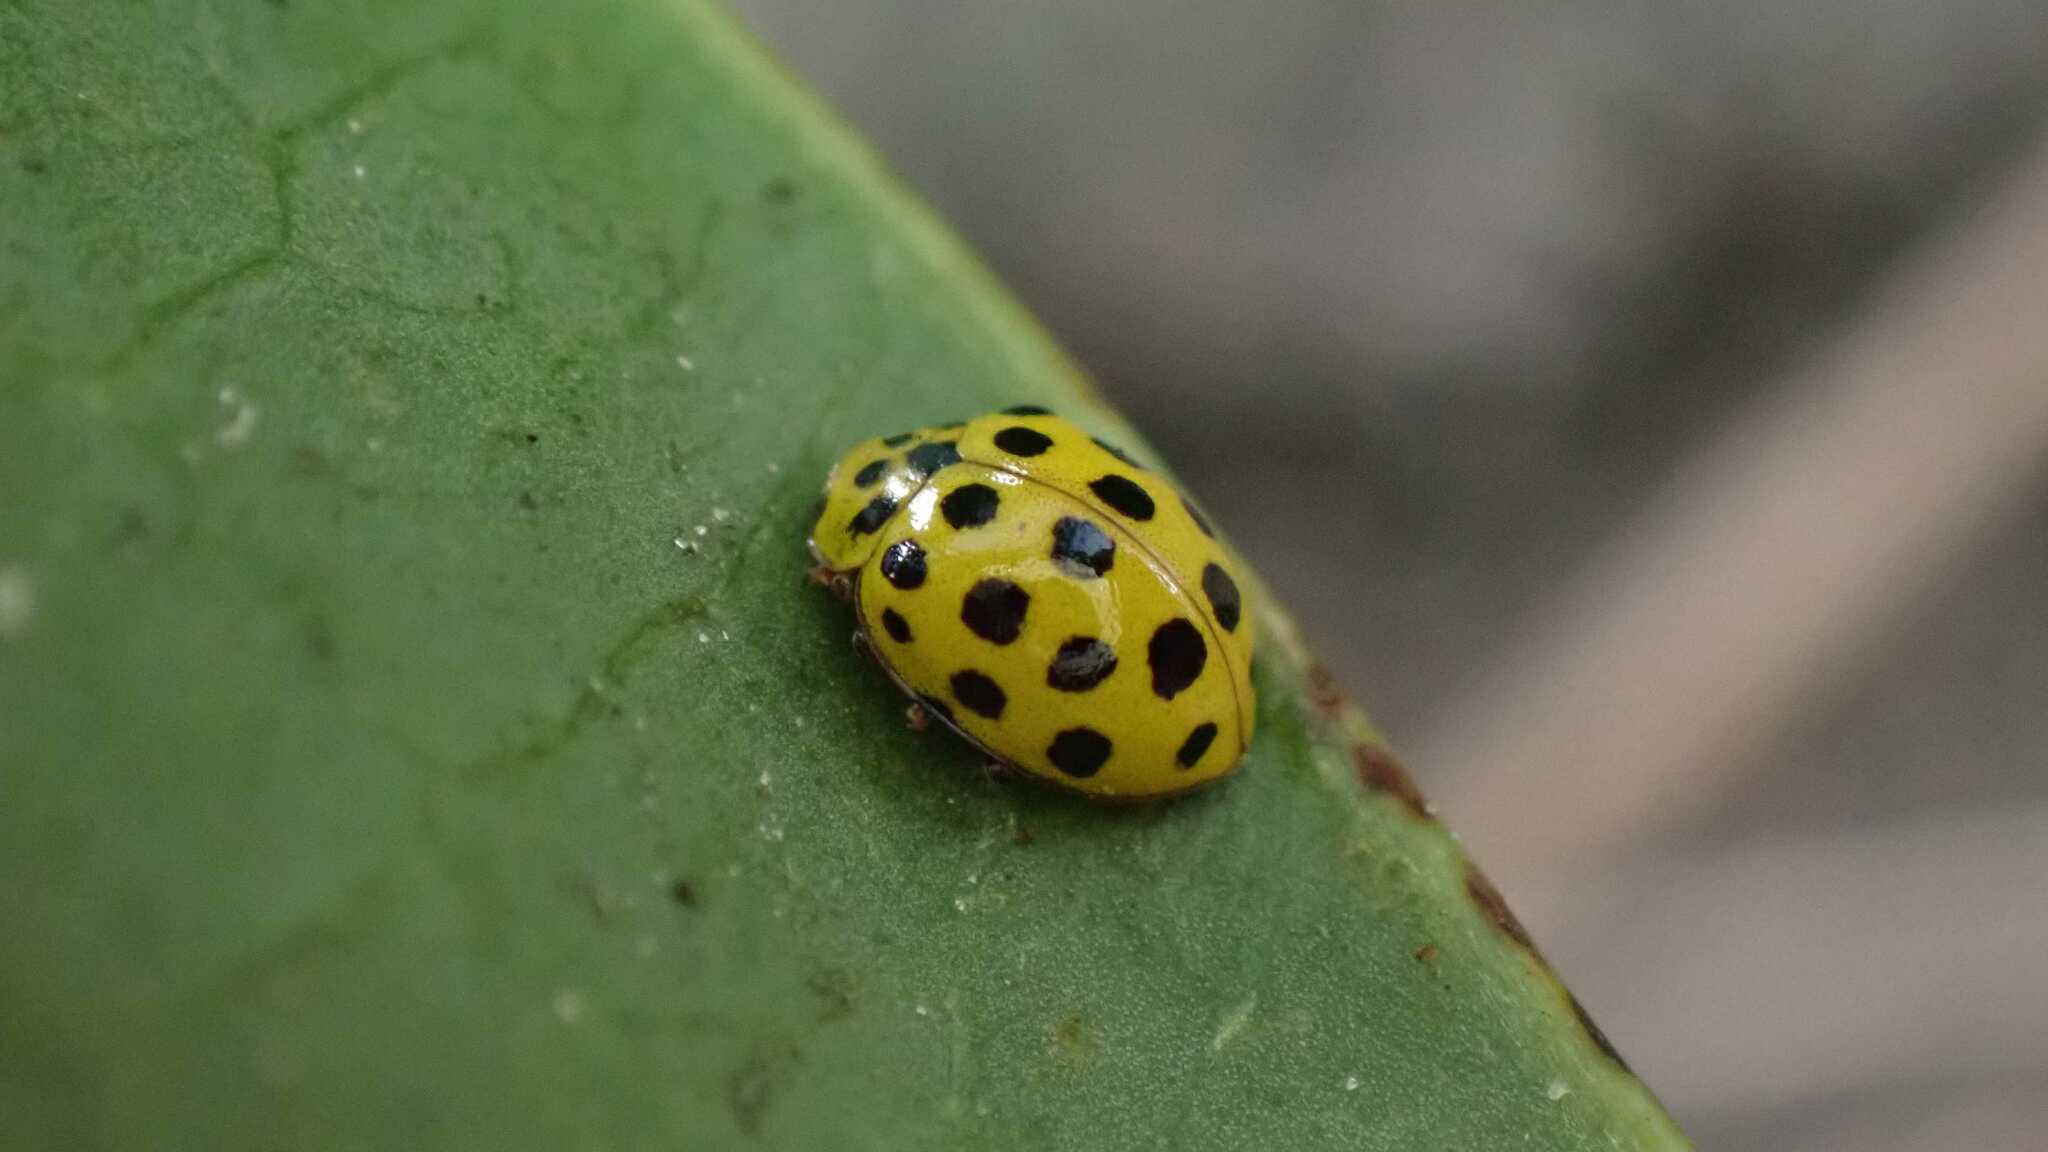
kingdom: Animalia
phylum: Arthropoda
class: Insecta
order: Coleoptera
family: Coccinellidae
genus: Psyllobora
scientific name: Psyllobora vigintiduopunctata
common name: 22-spot ladybird
